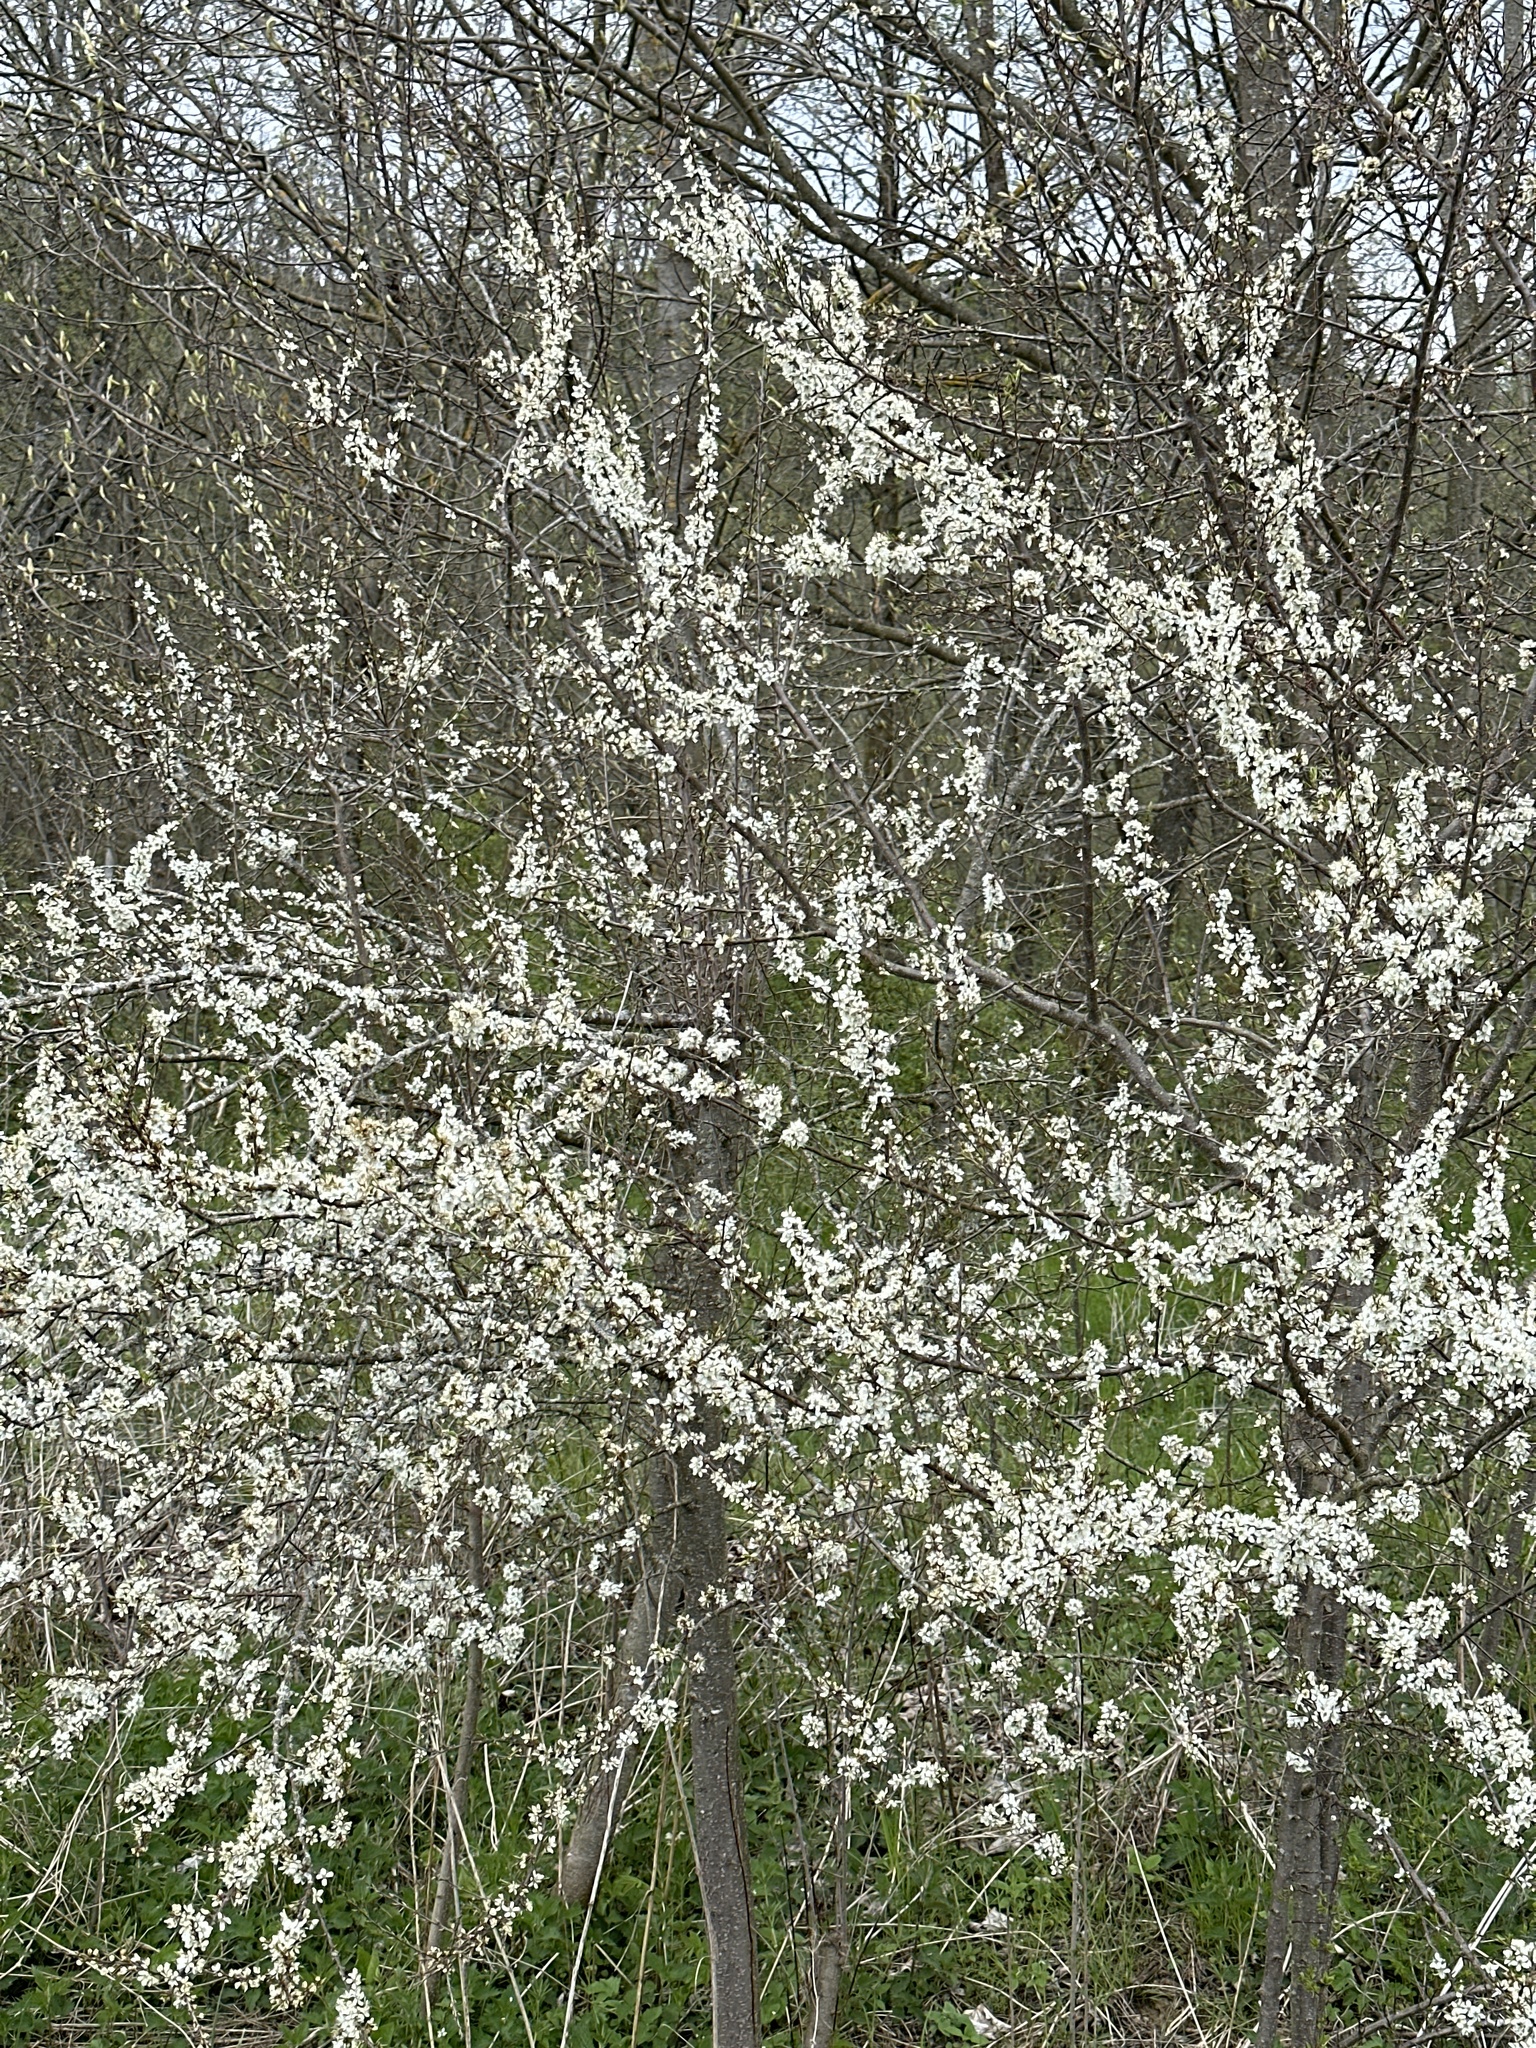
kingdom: Plantae
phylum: Tracheophyta
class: Magnoliopsida
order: Rosales
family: Rosaceae
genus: Prunus
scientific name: Prunus spinosa
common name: Blackthorn
